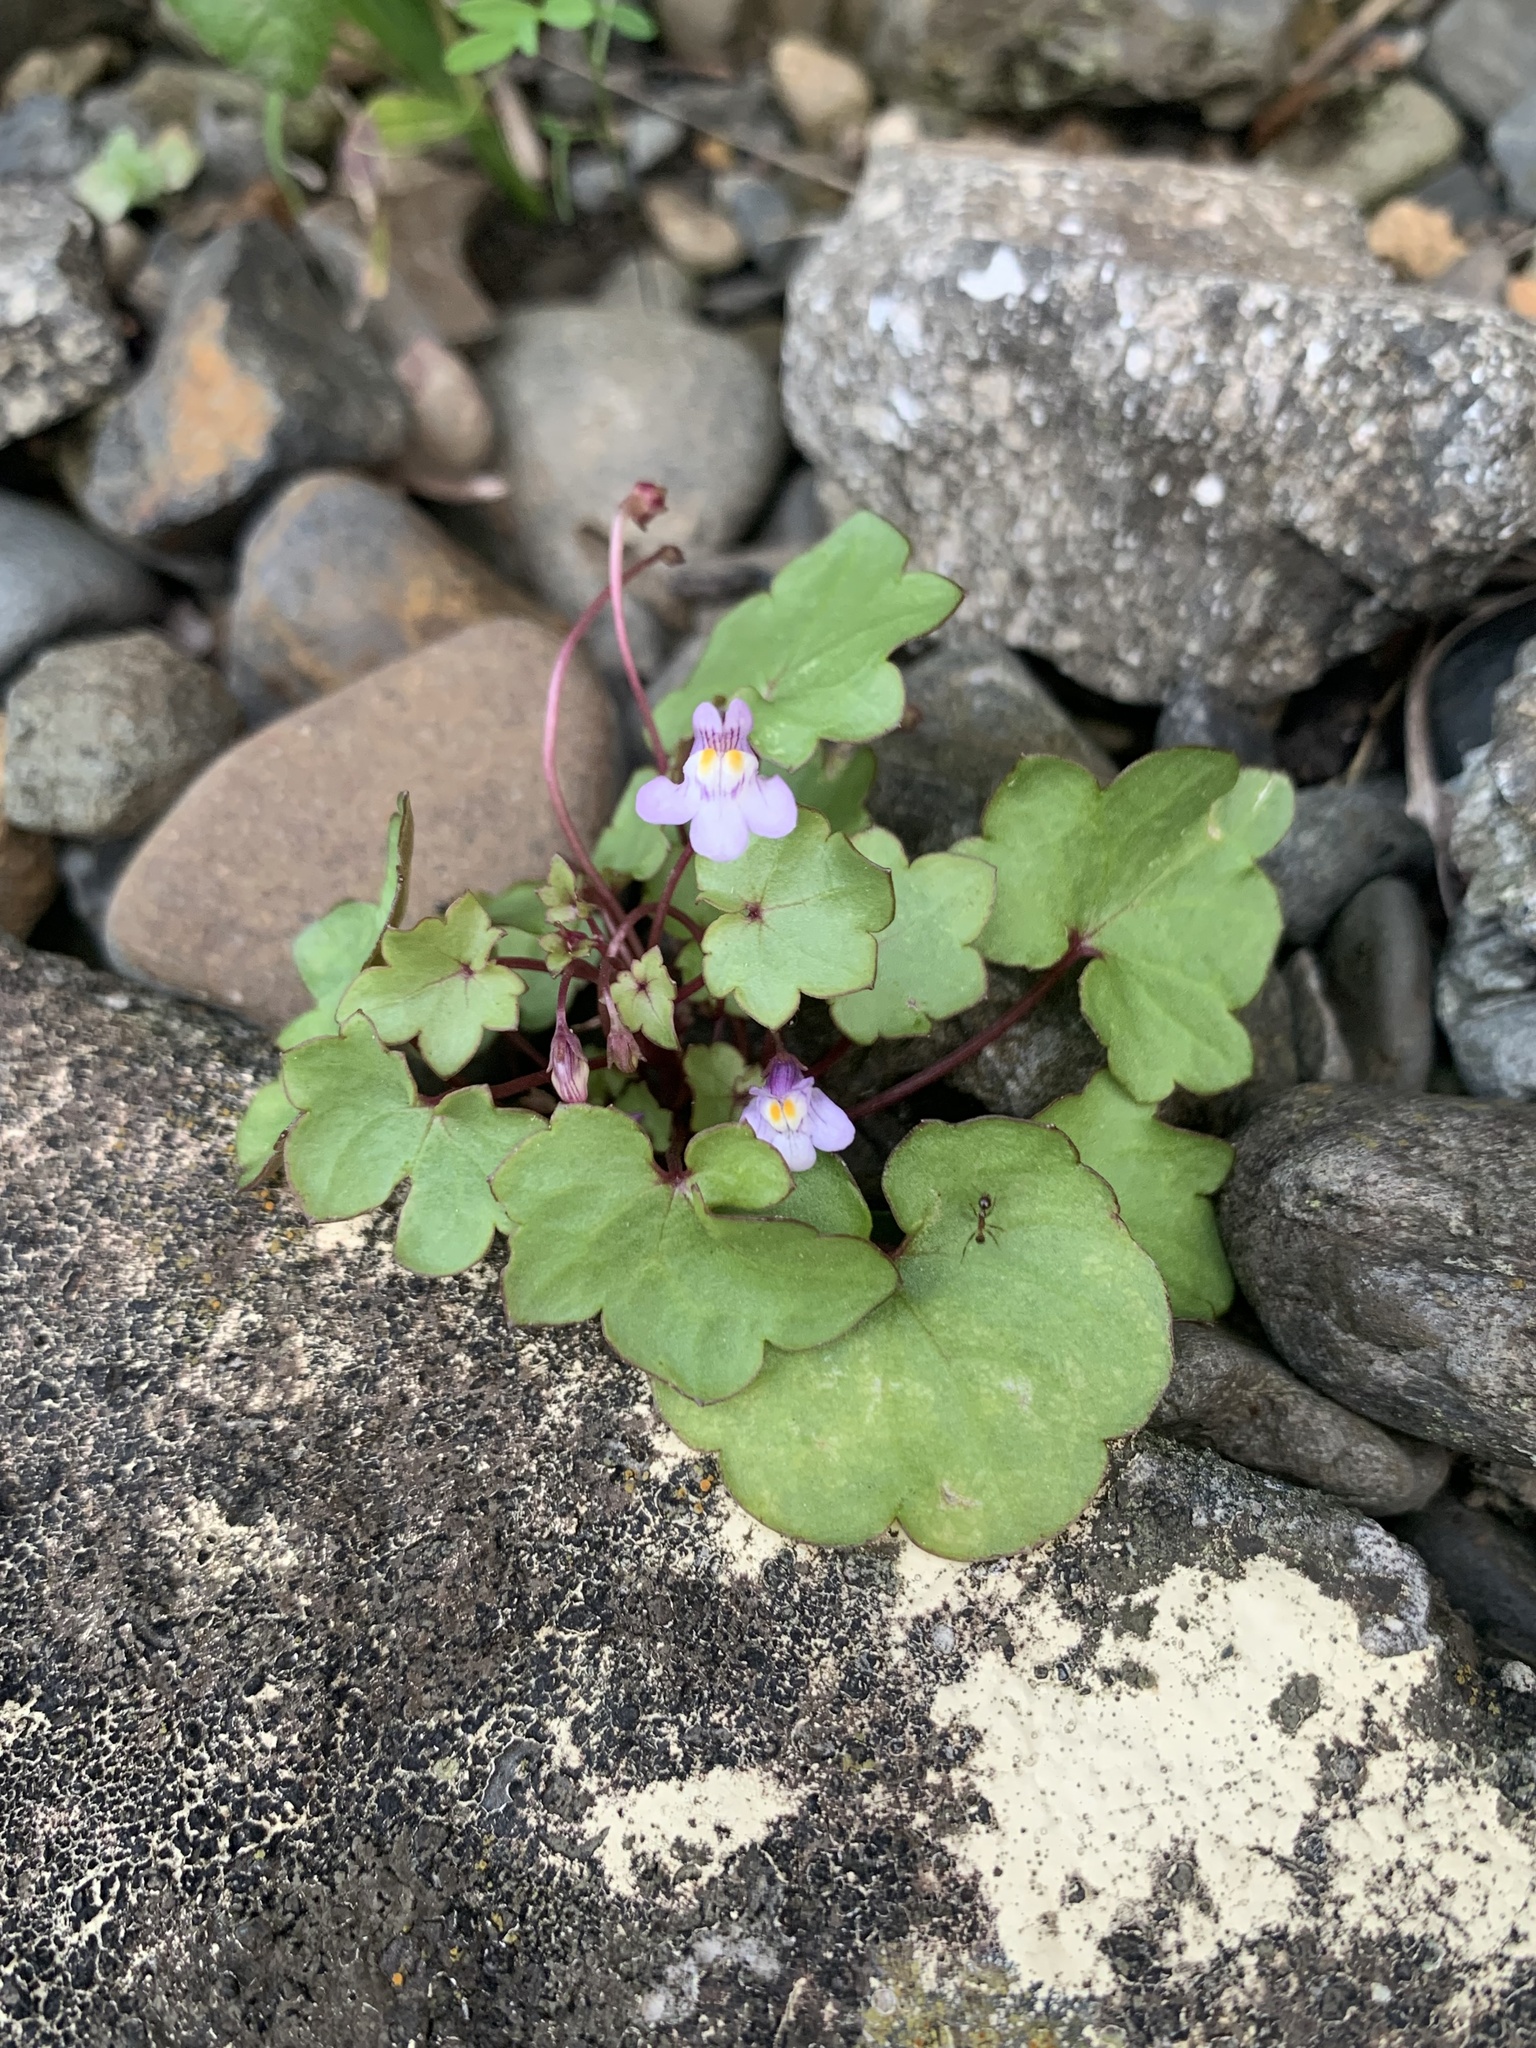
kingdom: Plantae
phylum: Tracheophyta
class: Magnoliopsida
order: Lamiales
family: Plantaginaceae
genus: Cymbalaria
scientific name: Cymbalaria muralis
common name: Ivy-leaved toadflax
